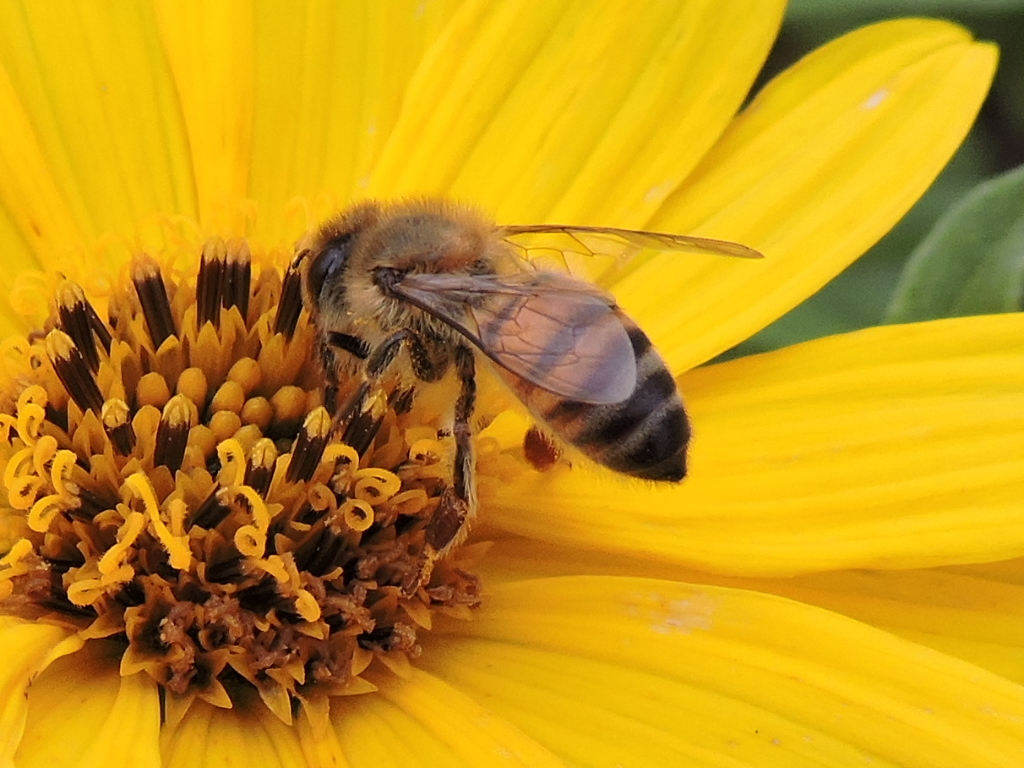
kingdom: Animalia
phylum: Arthropoda
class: Insecta
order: Hymenoptera
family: Apidae
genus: Apis
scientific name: Apis mellifera
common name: Honey bee
